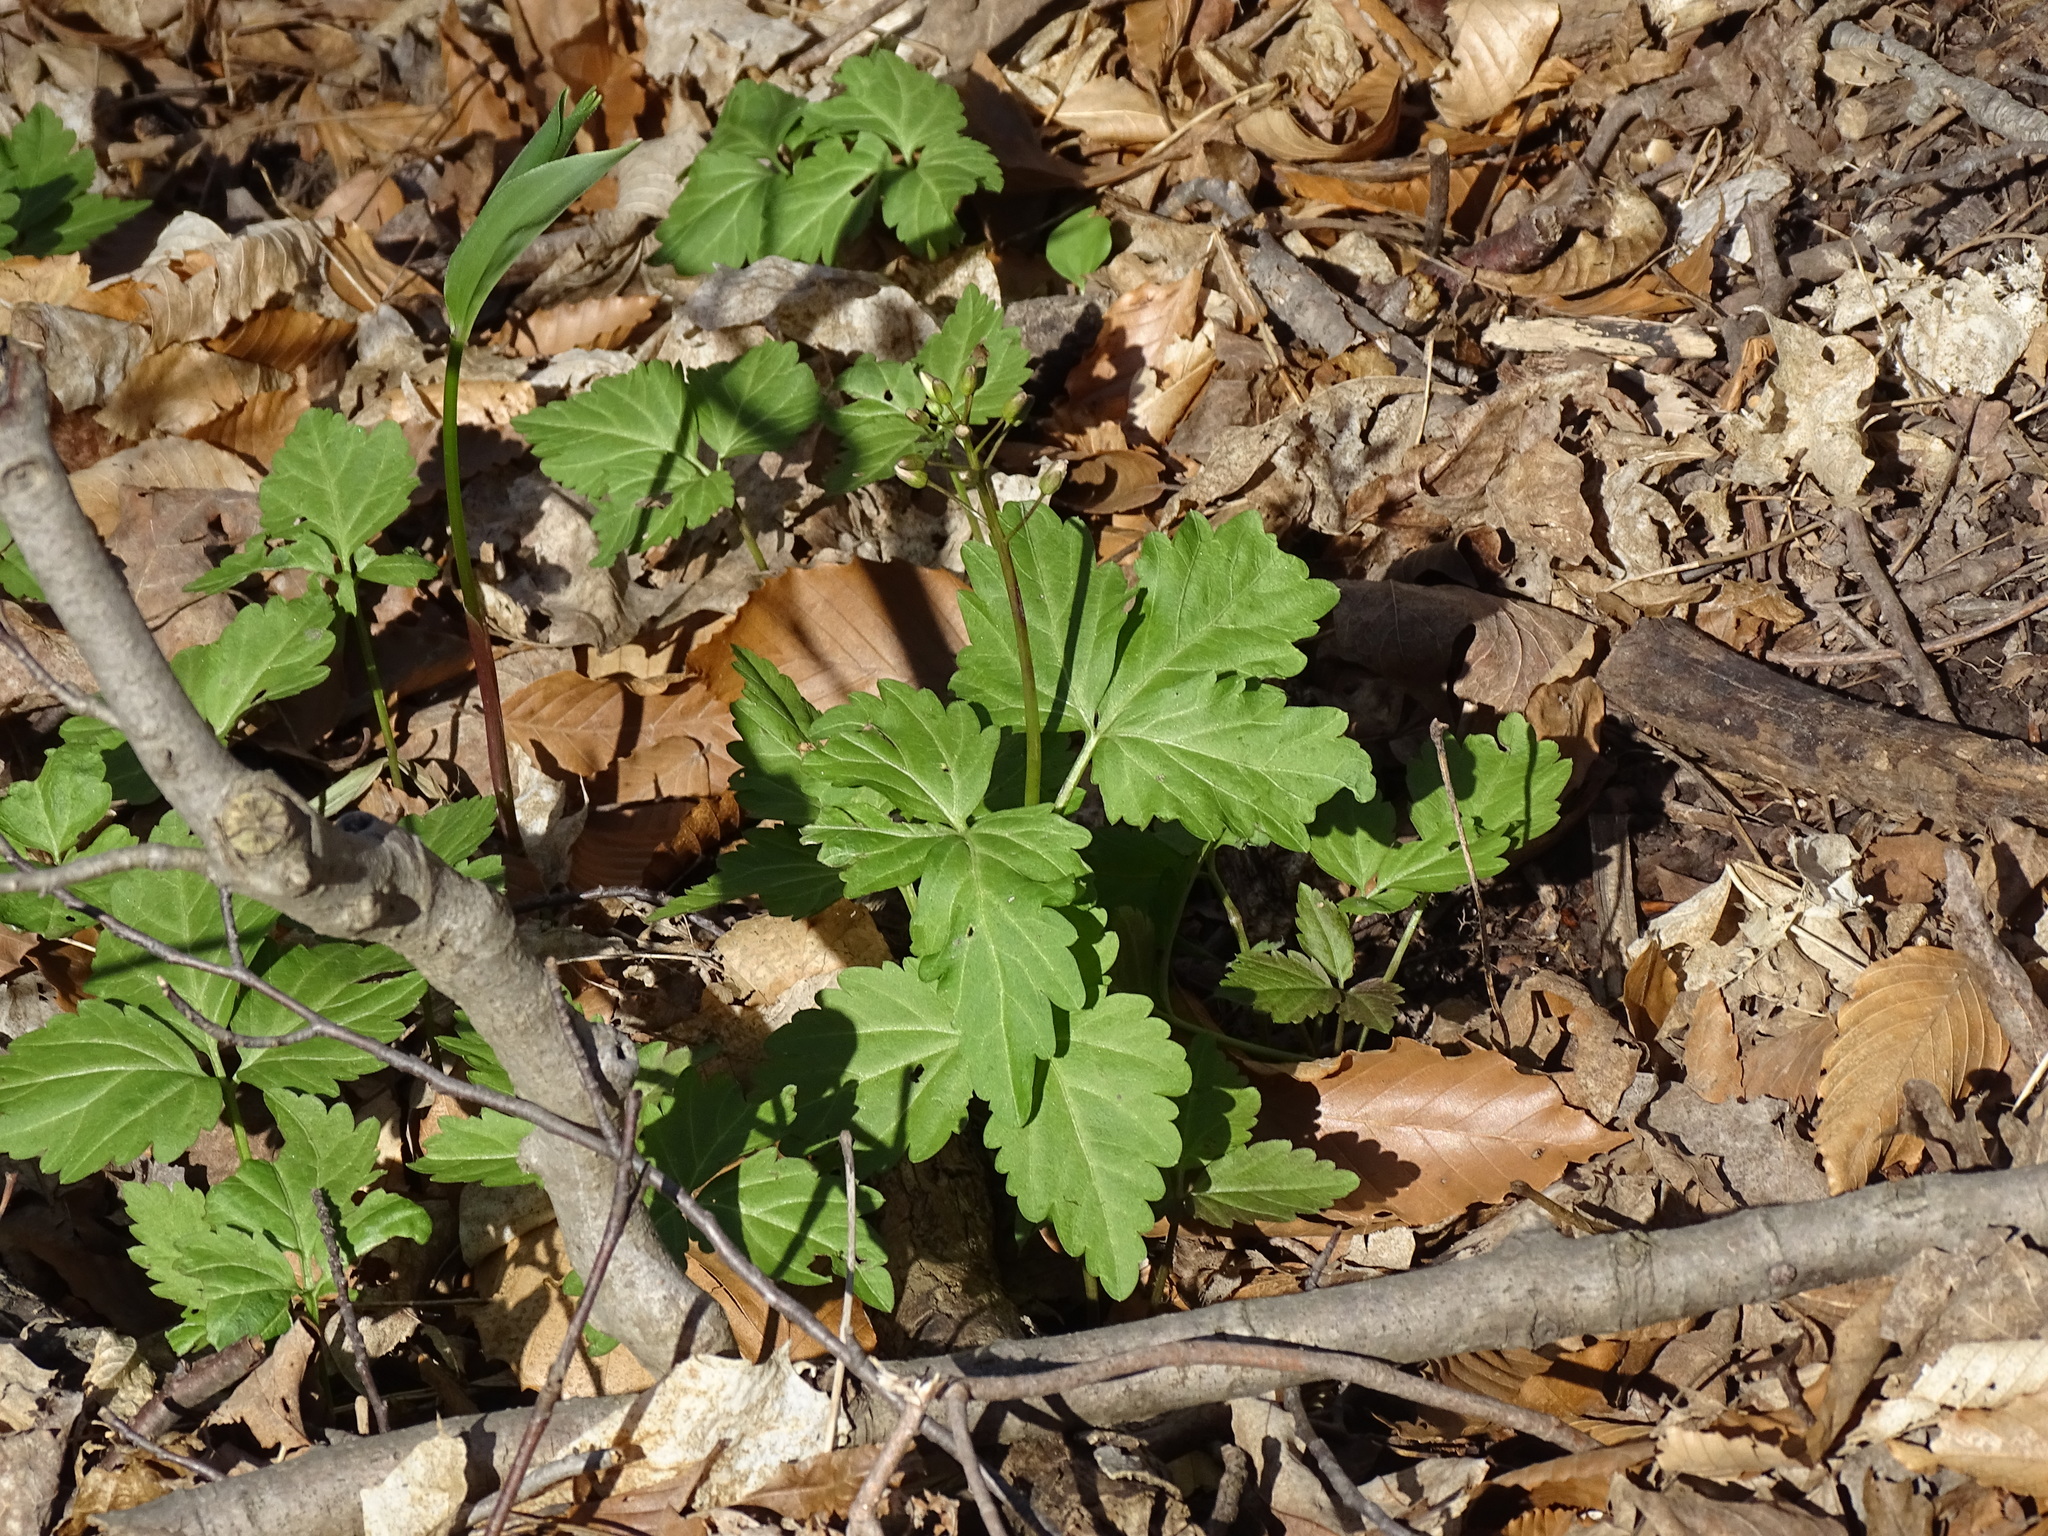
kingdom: Plantae
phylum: Tracheophyta
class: Magnoliopsida
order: Brassicales
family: Brassicaceae
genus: Cardamine
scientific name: Cardamine diphylla
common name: Broad-leaved toothwort
